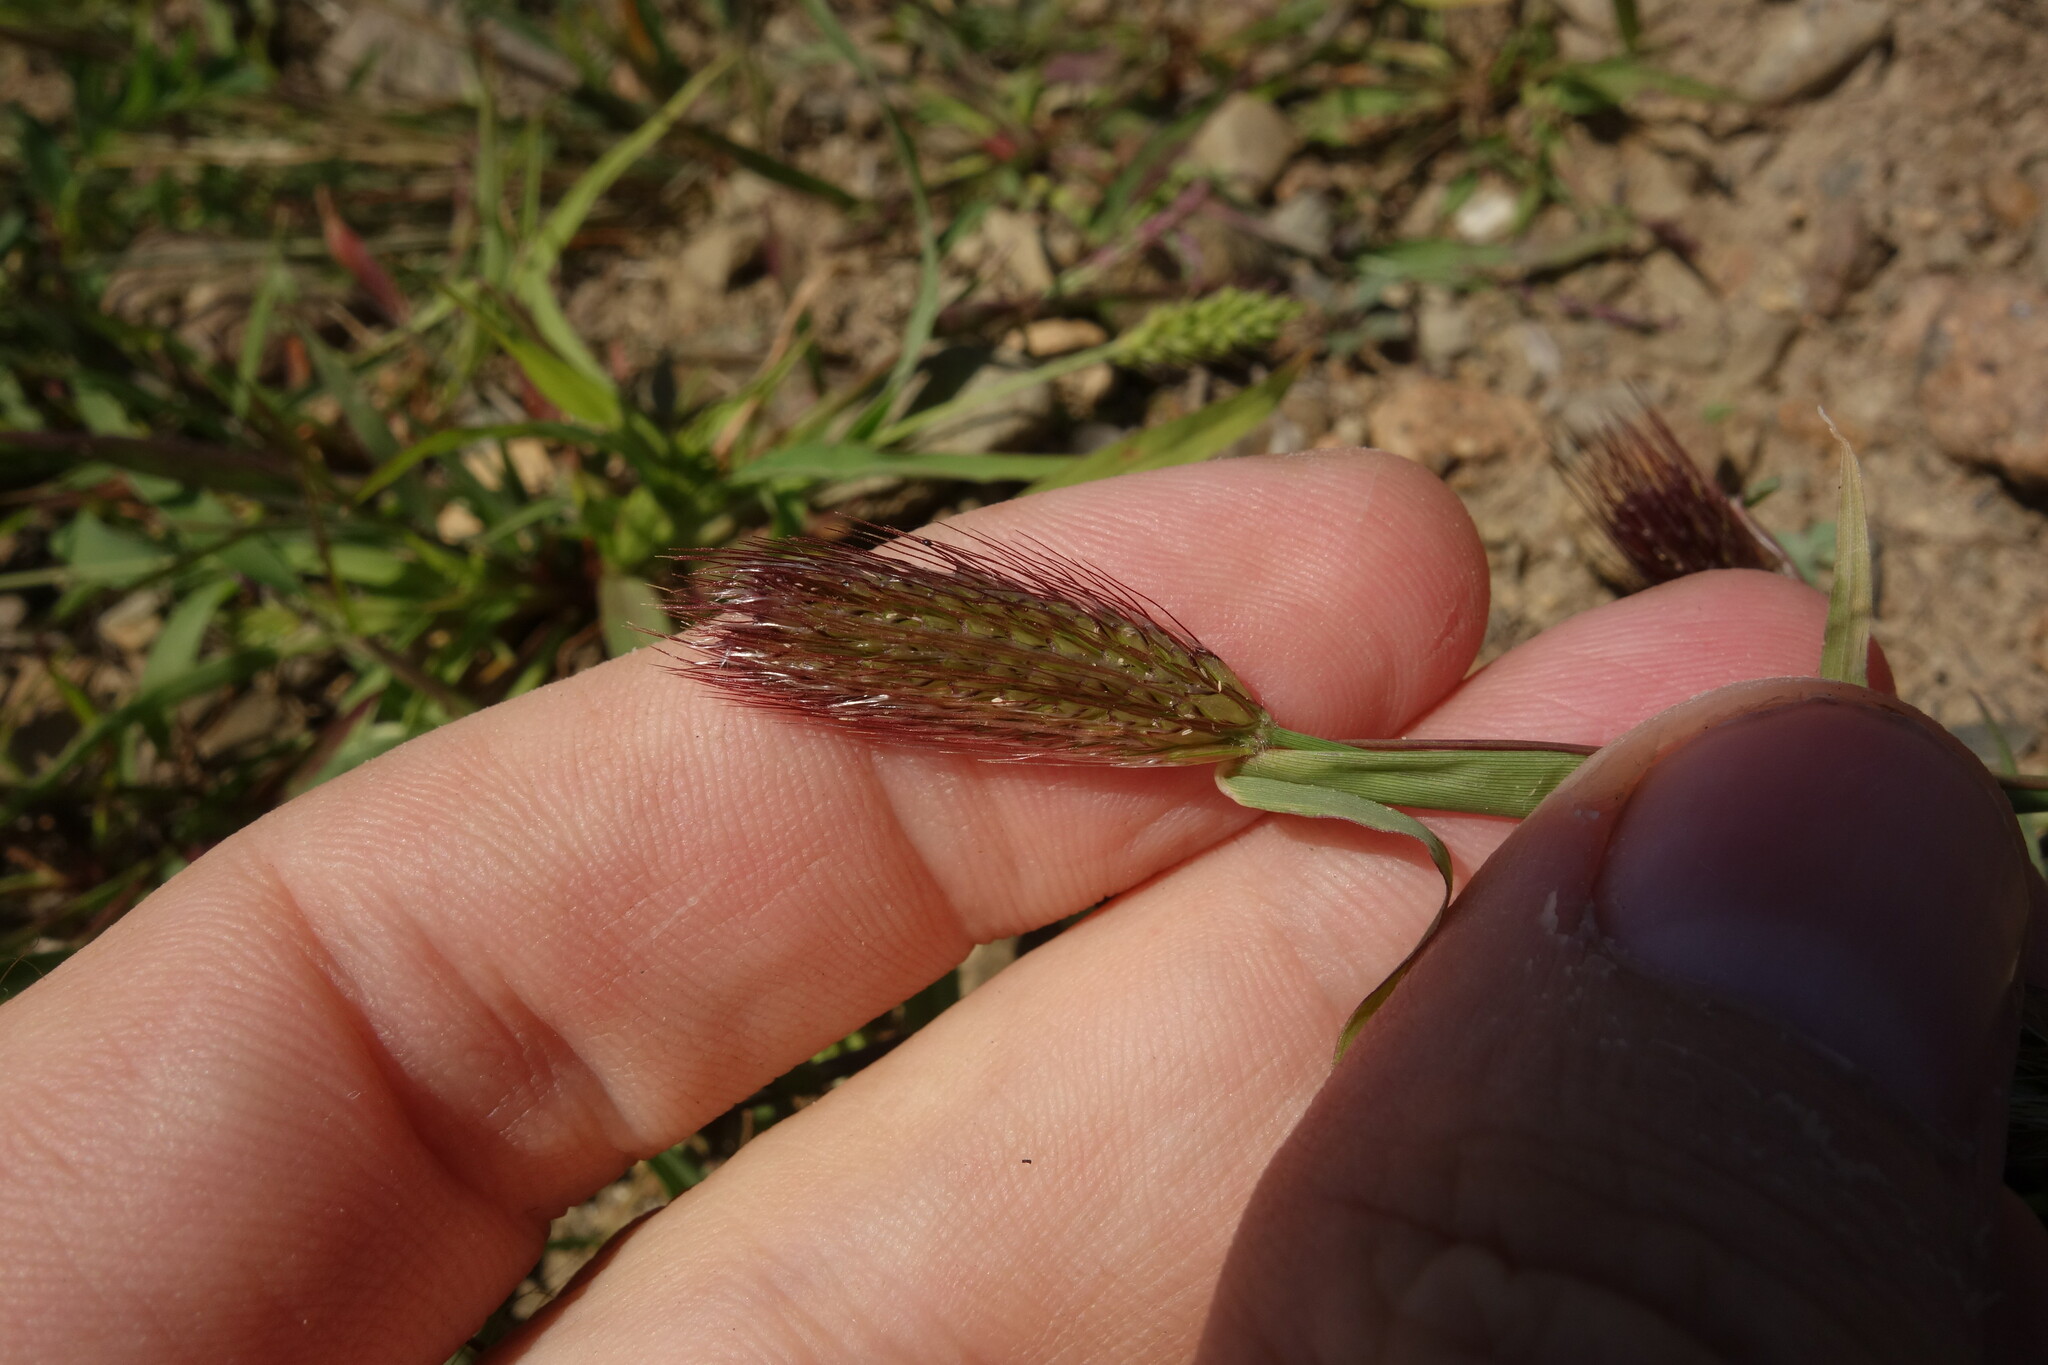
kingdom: Plantae
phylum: Tracheophyta
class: Liliopsida
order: Poales
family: Poaceae
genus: Chloris
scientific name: Chloris virgata
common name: Feathery rhodes-grass
